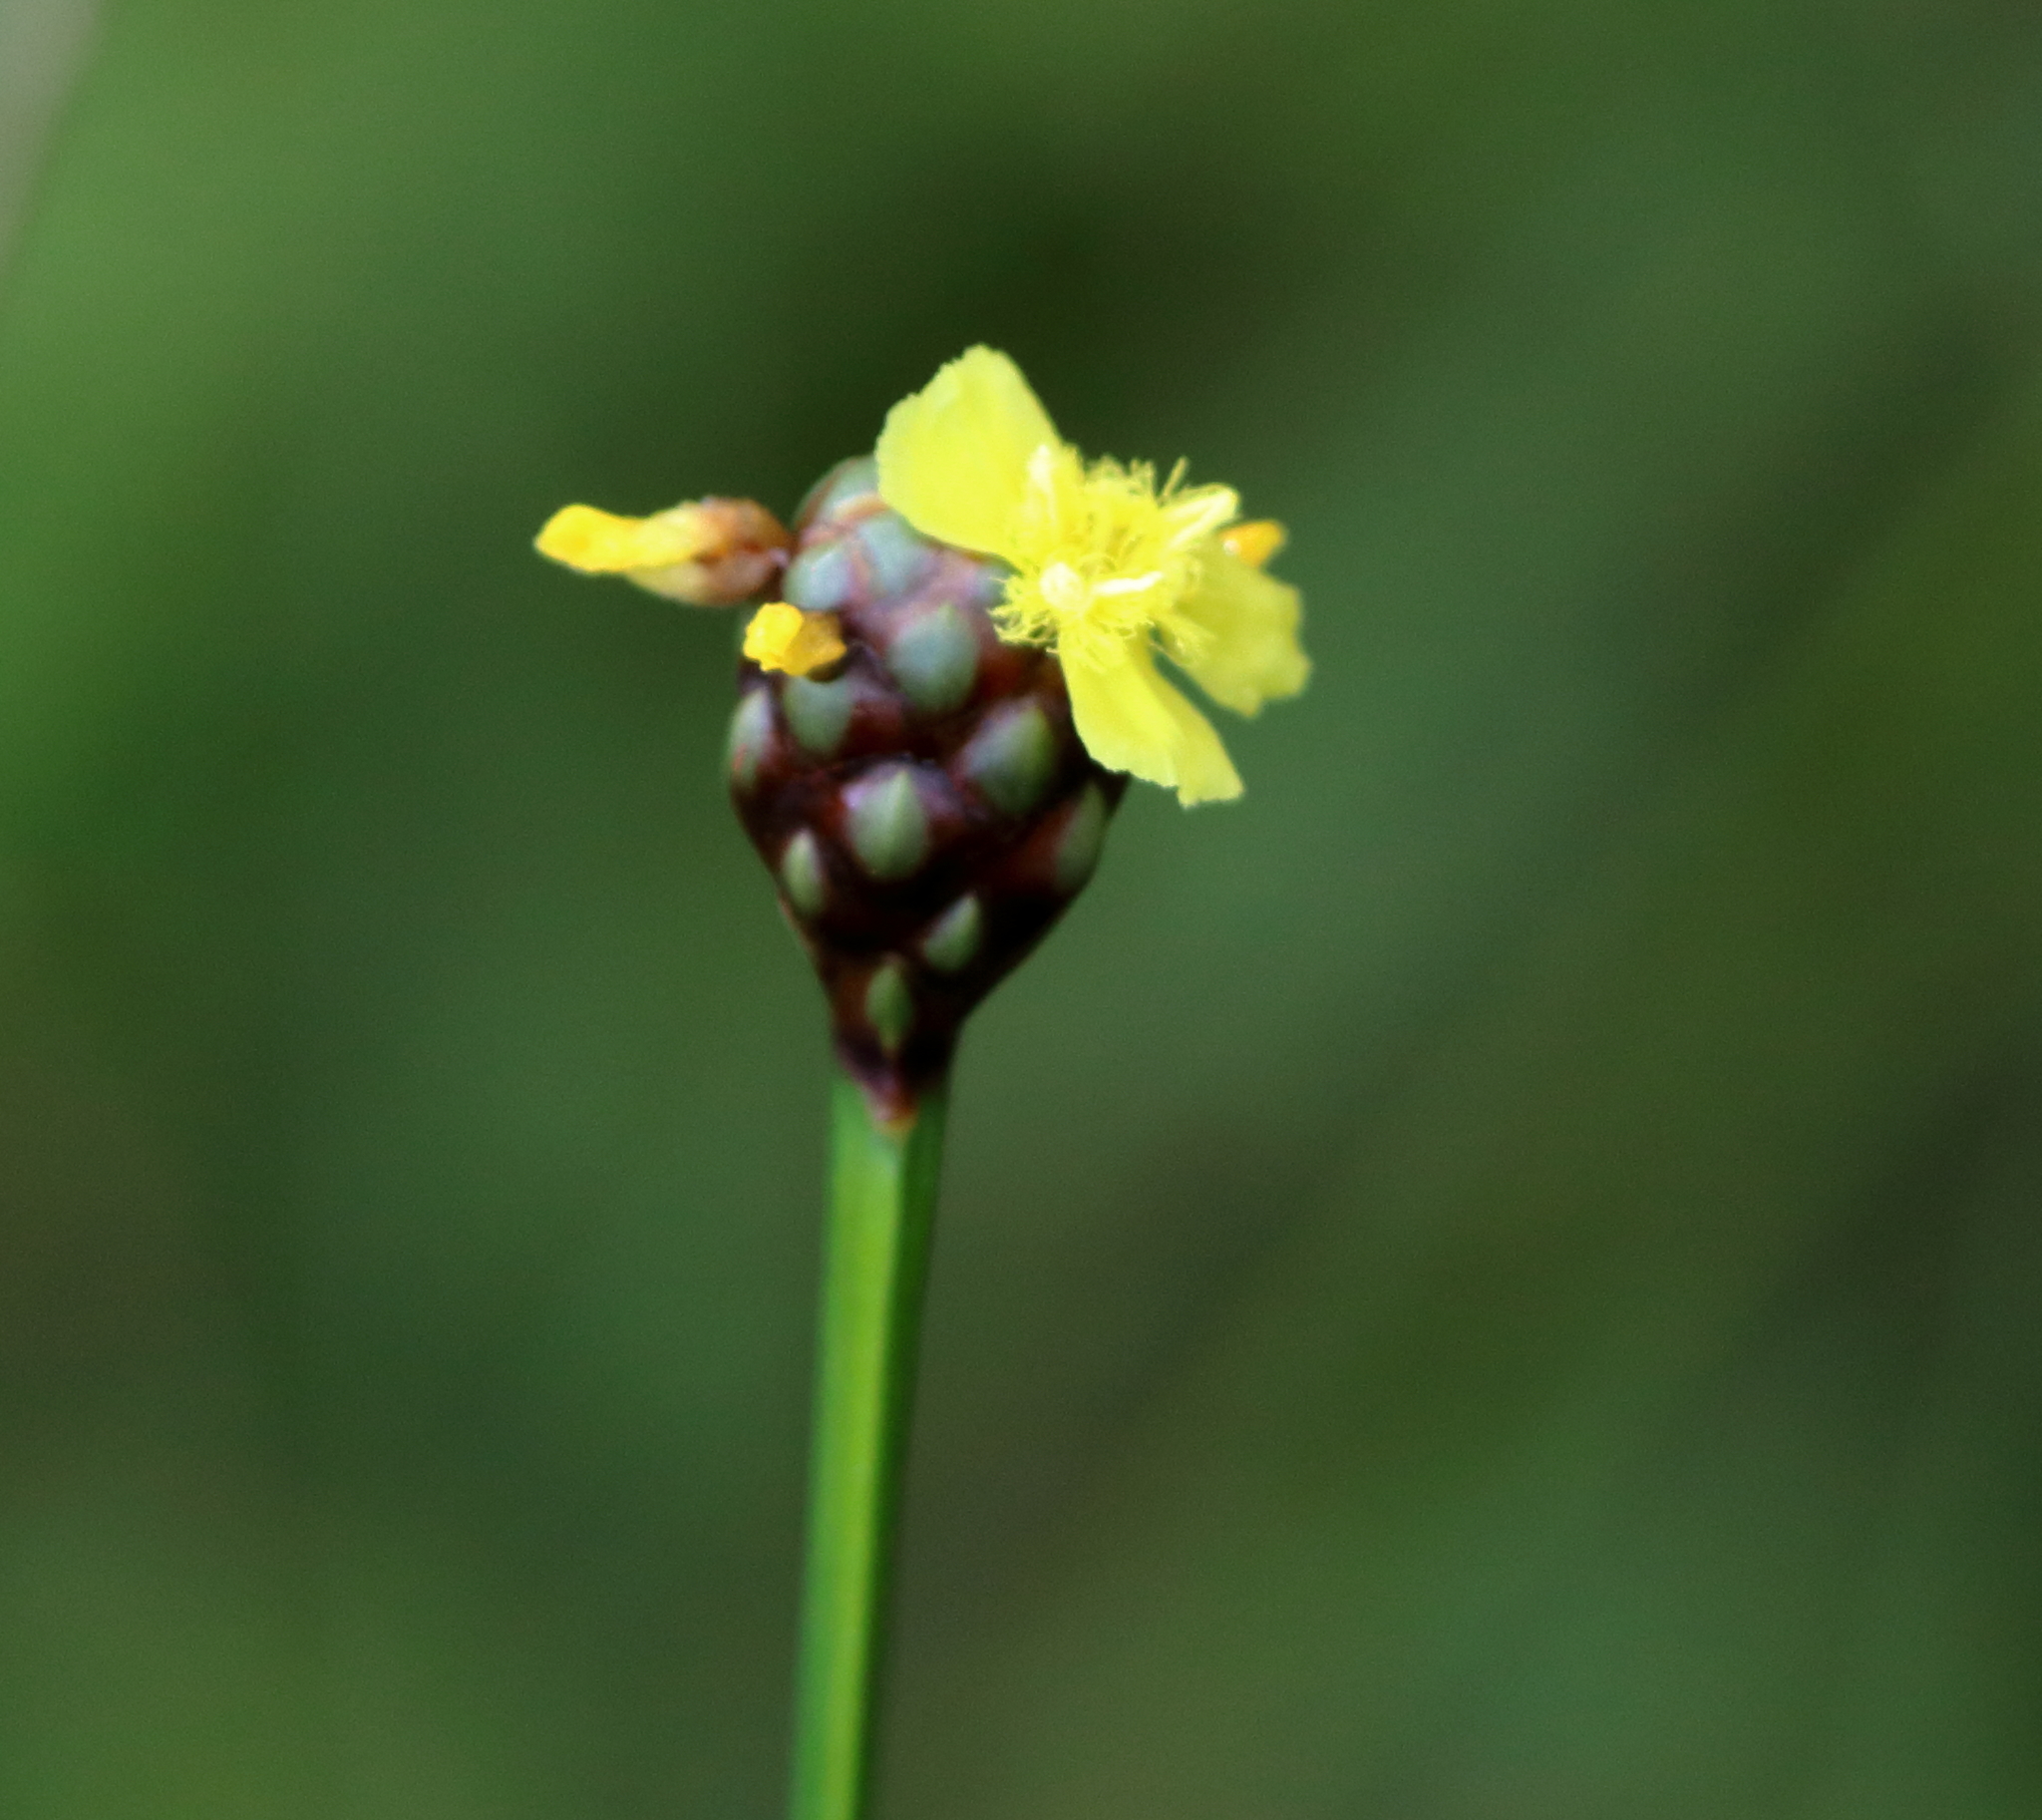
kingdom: Plantae
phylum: Tracheophyta
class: Liliopsida
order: Poales
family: Xyridaceae
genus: Xyris
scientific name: Xyris laxifolia
